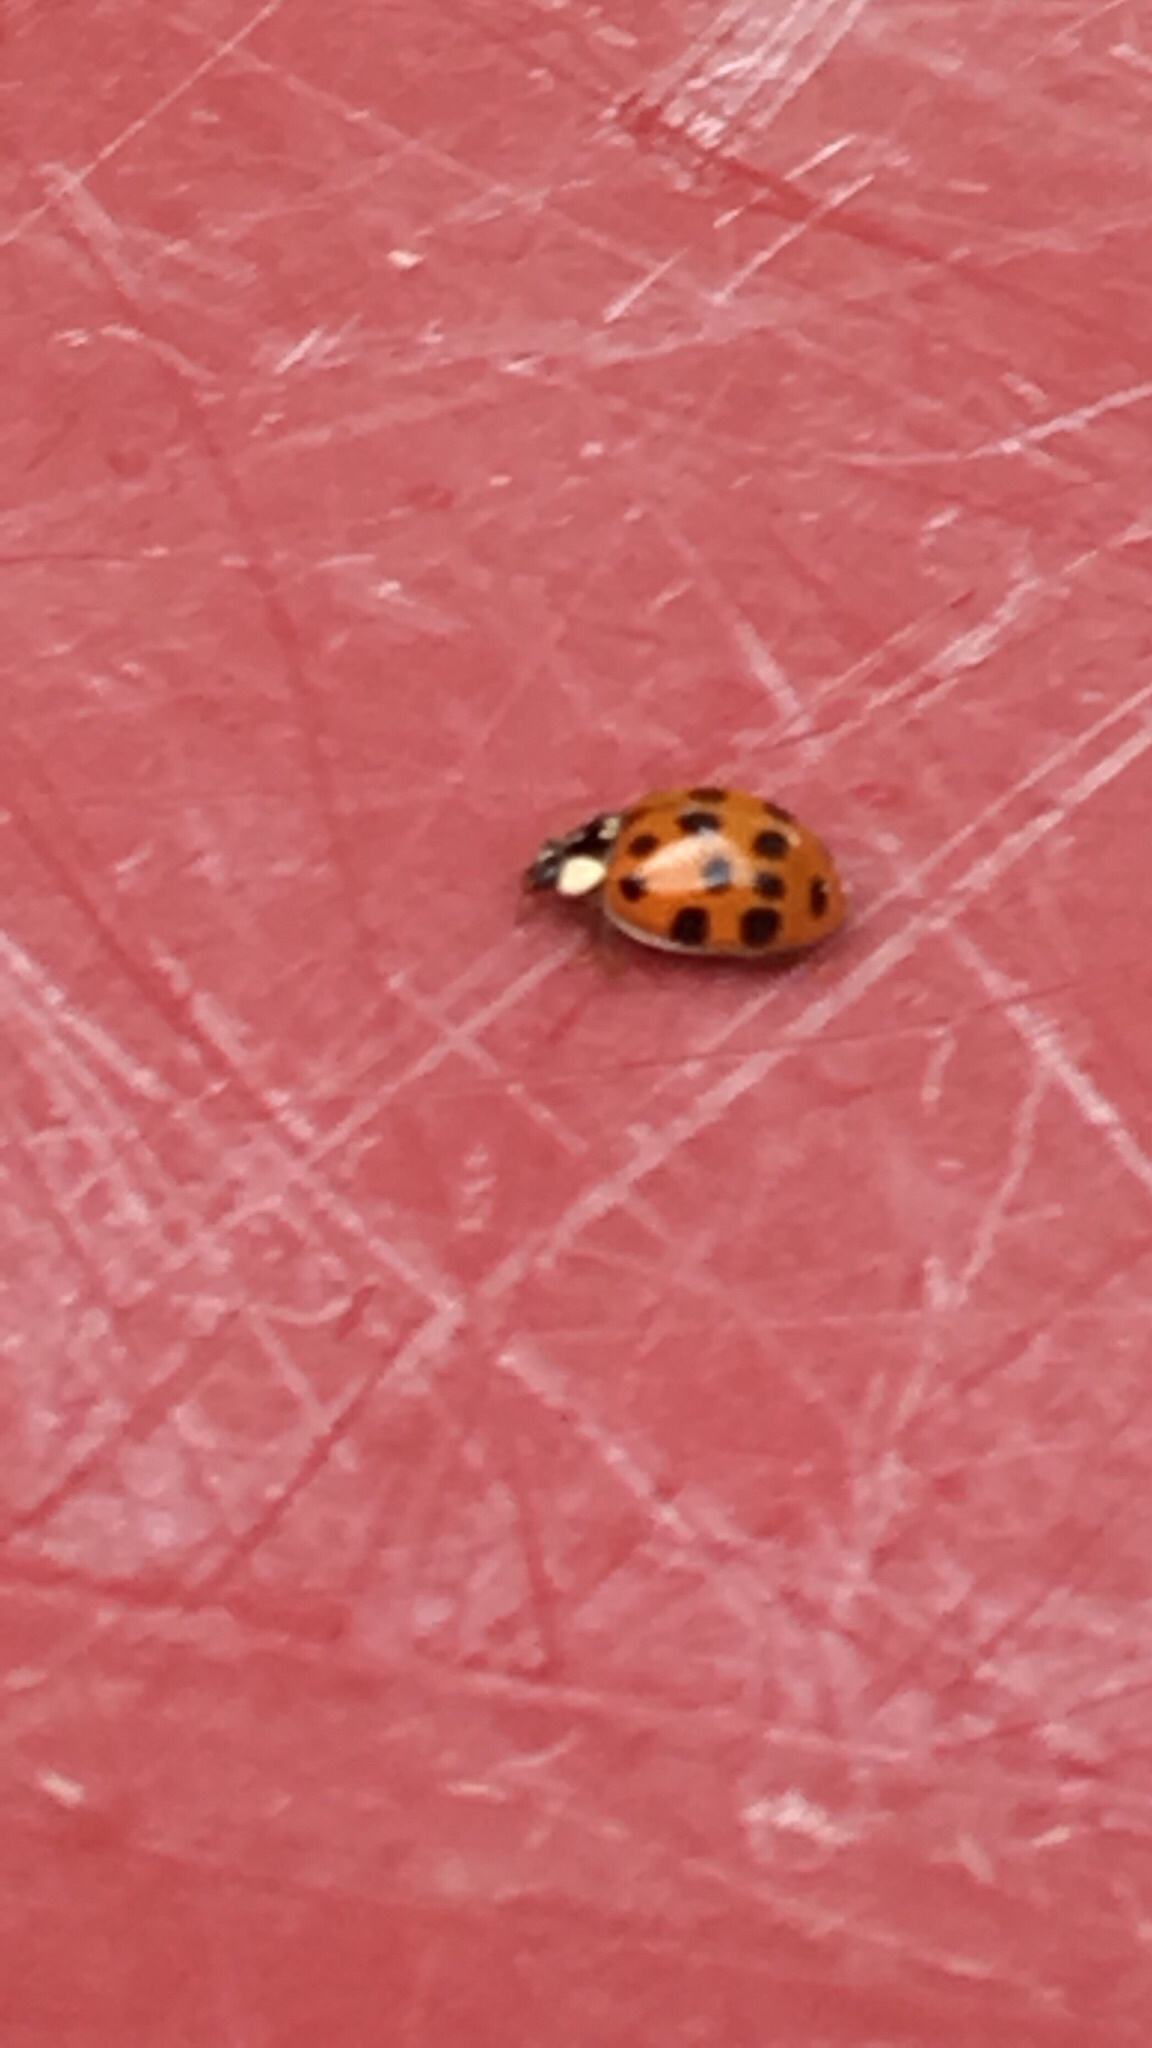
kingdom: Animalia
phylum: Arthropoda
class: Insecta
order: Coleoptera
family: Coccinellidae
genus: Harmonia
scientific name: Harmonia axyridis
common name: Harlequin ladybird
